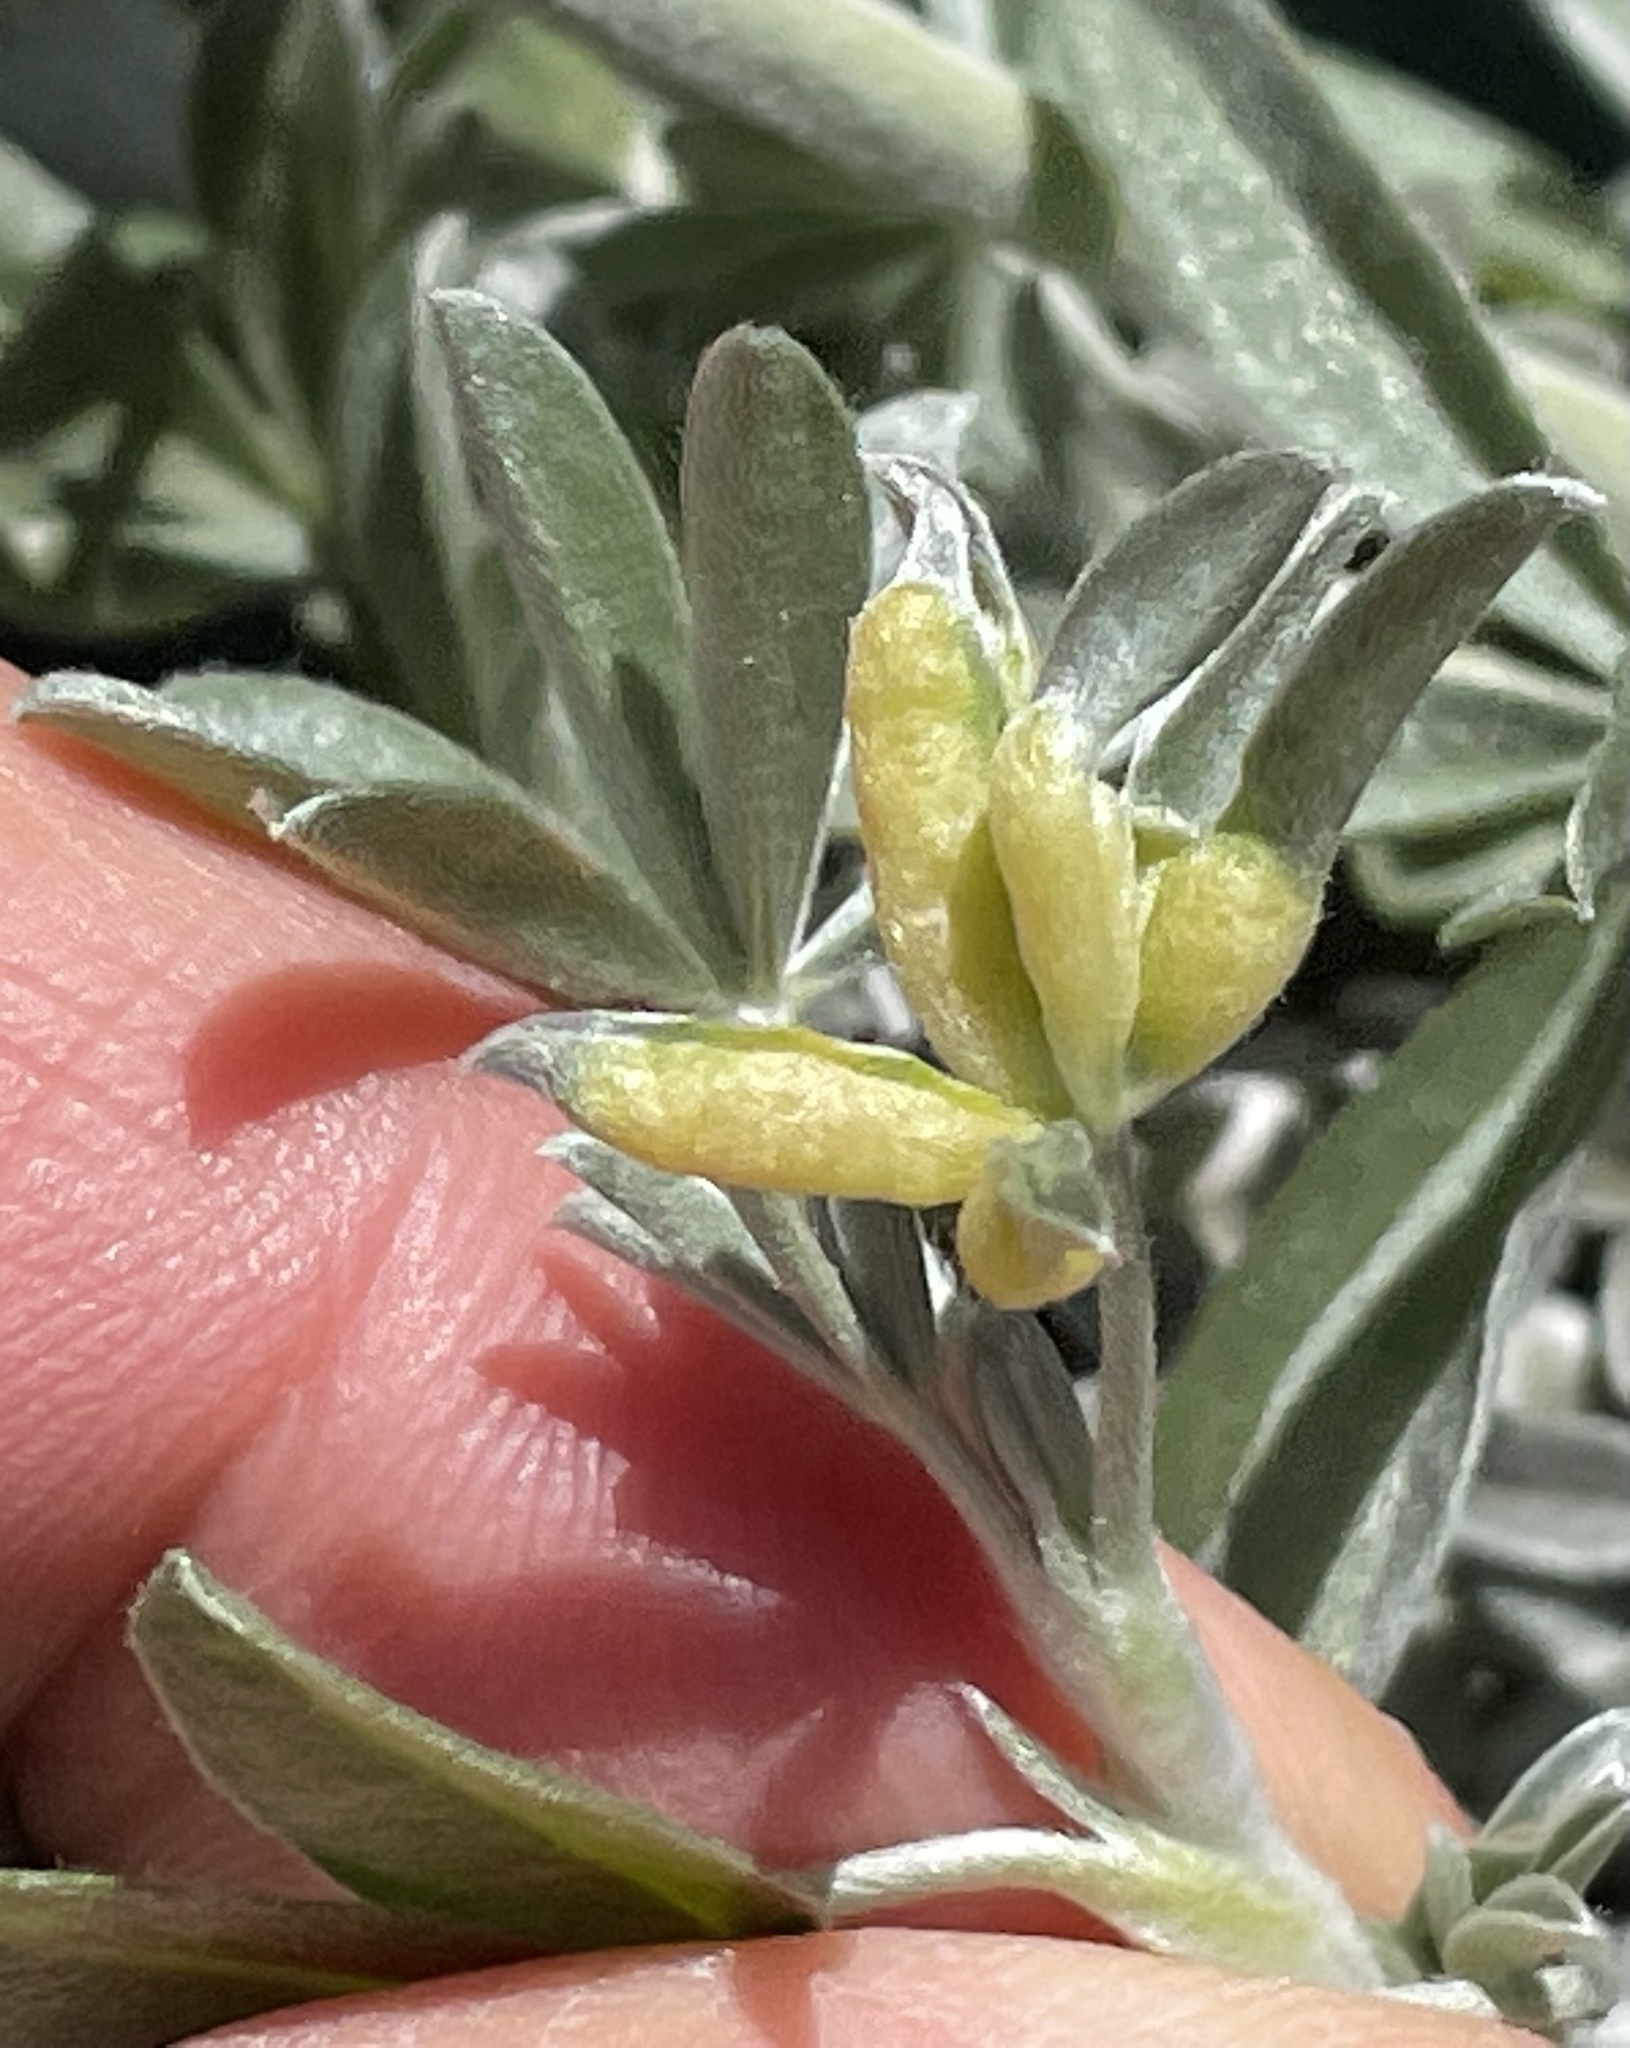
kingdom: Animalia
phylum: Arthropoda
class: Insecta
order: Diptera
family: Cecidomyiidae
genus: Dasineura
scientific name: Dasineura lupinorum
